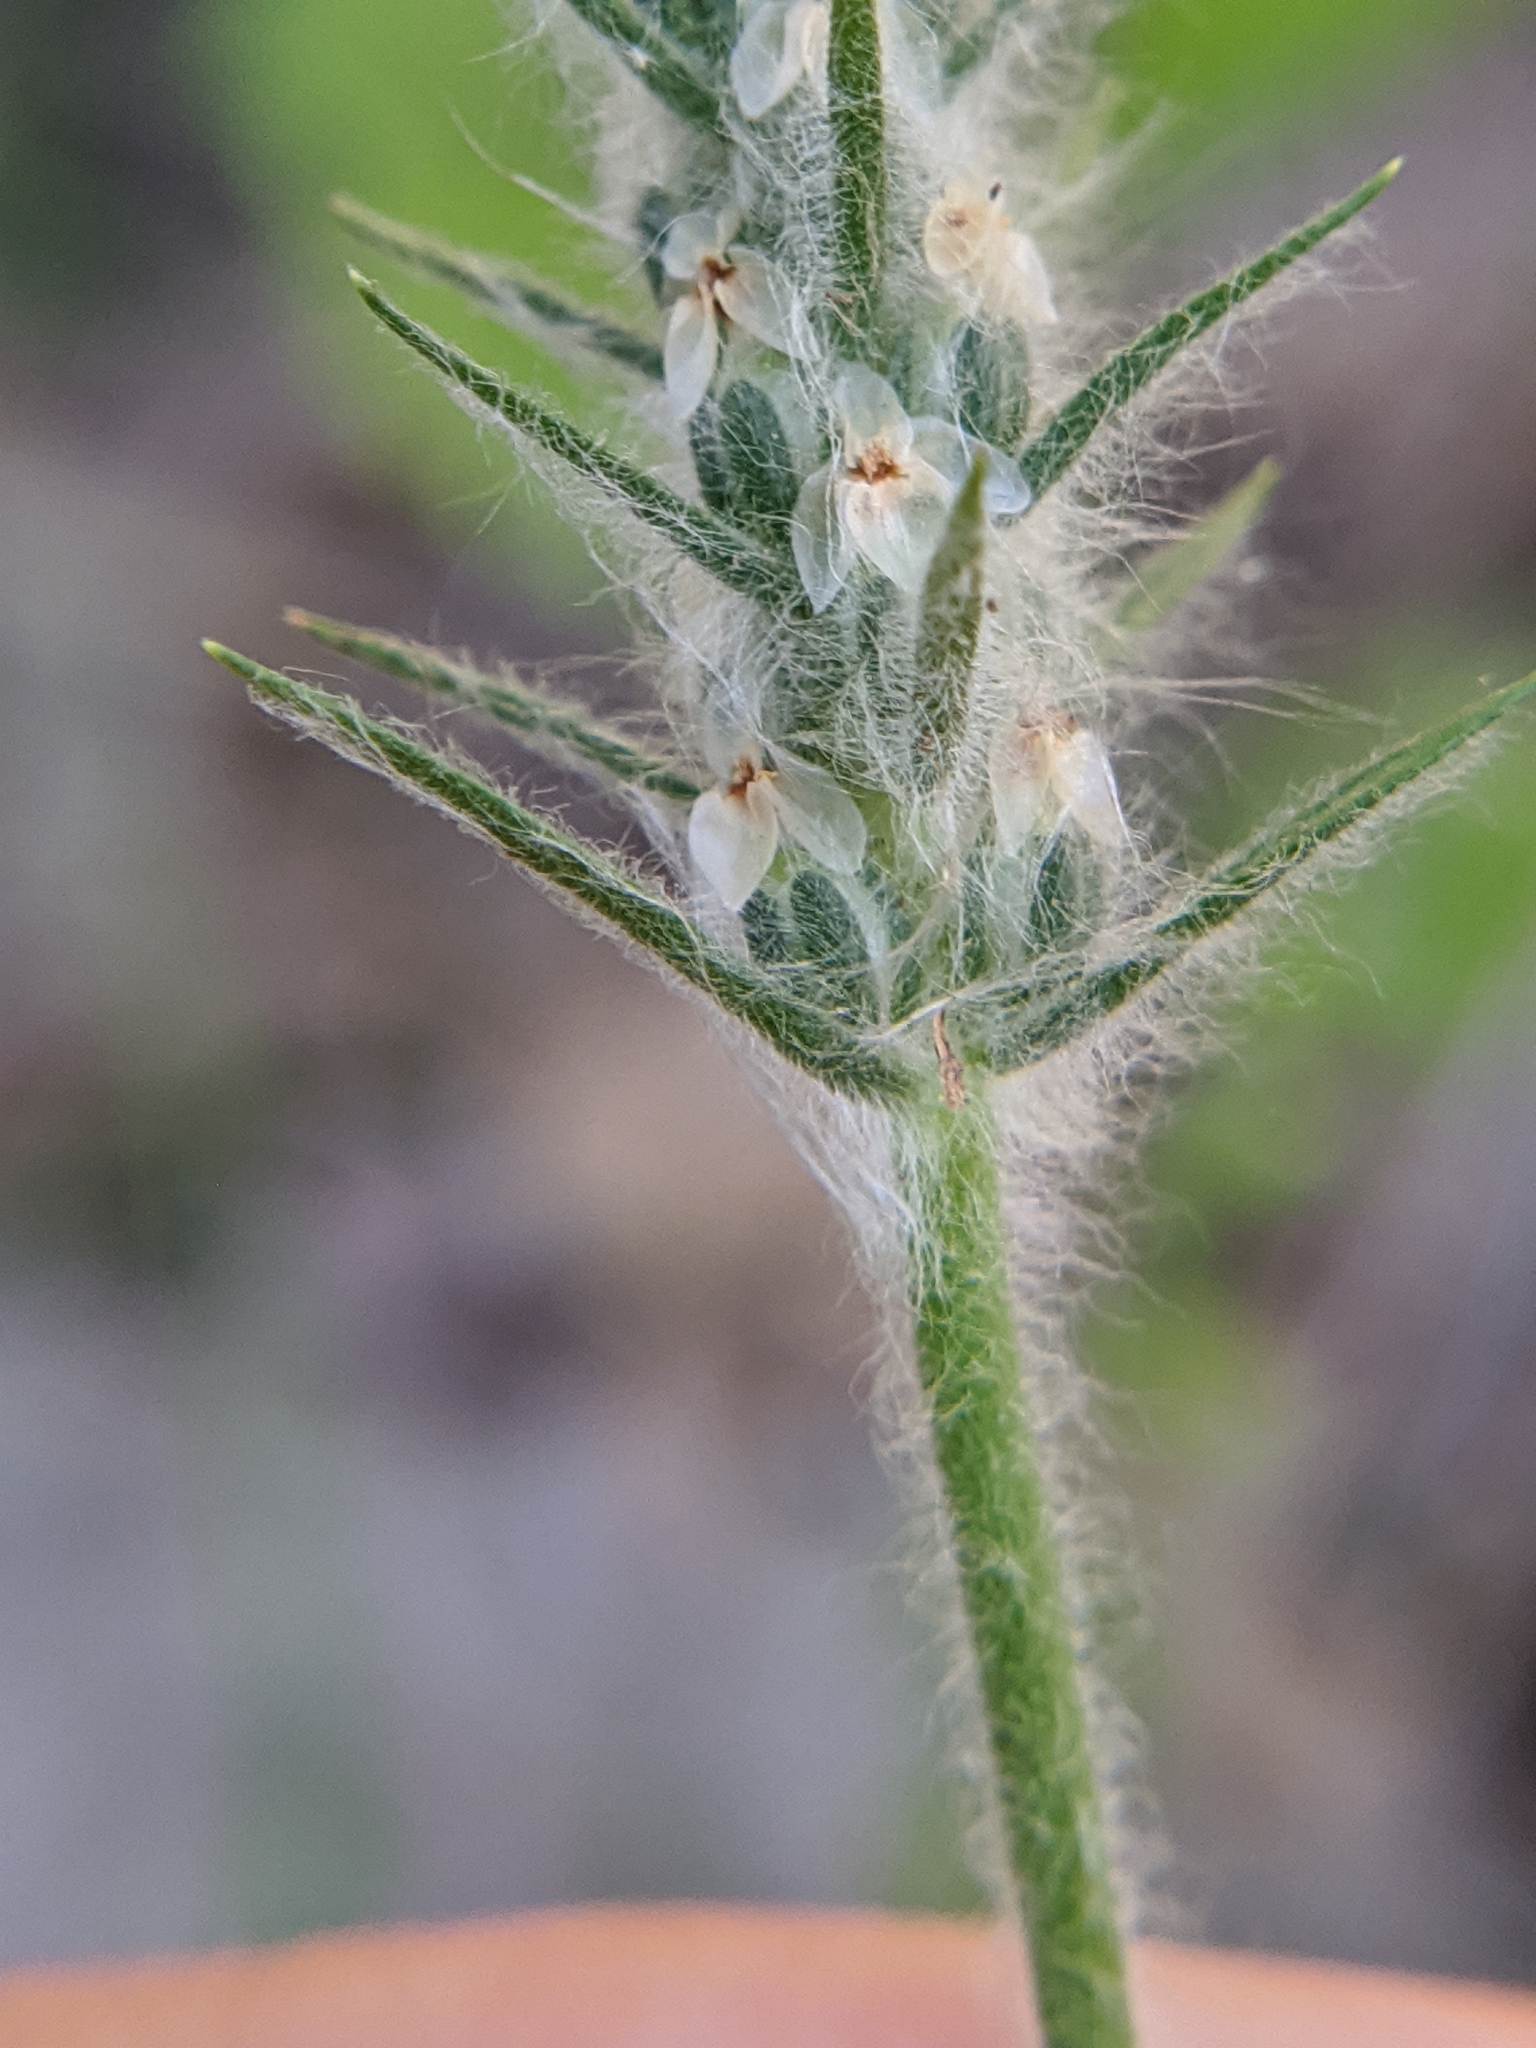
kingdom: Plantae
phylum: Tracheophyta
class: Magnoliopsida
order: Lamiales
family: Plantaginaceae
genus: Plantago
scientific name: Plantago aristata
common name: Bracted plantain
